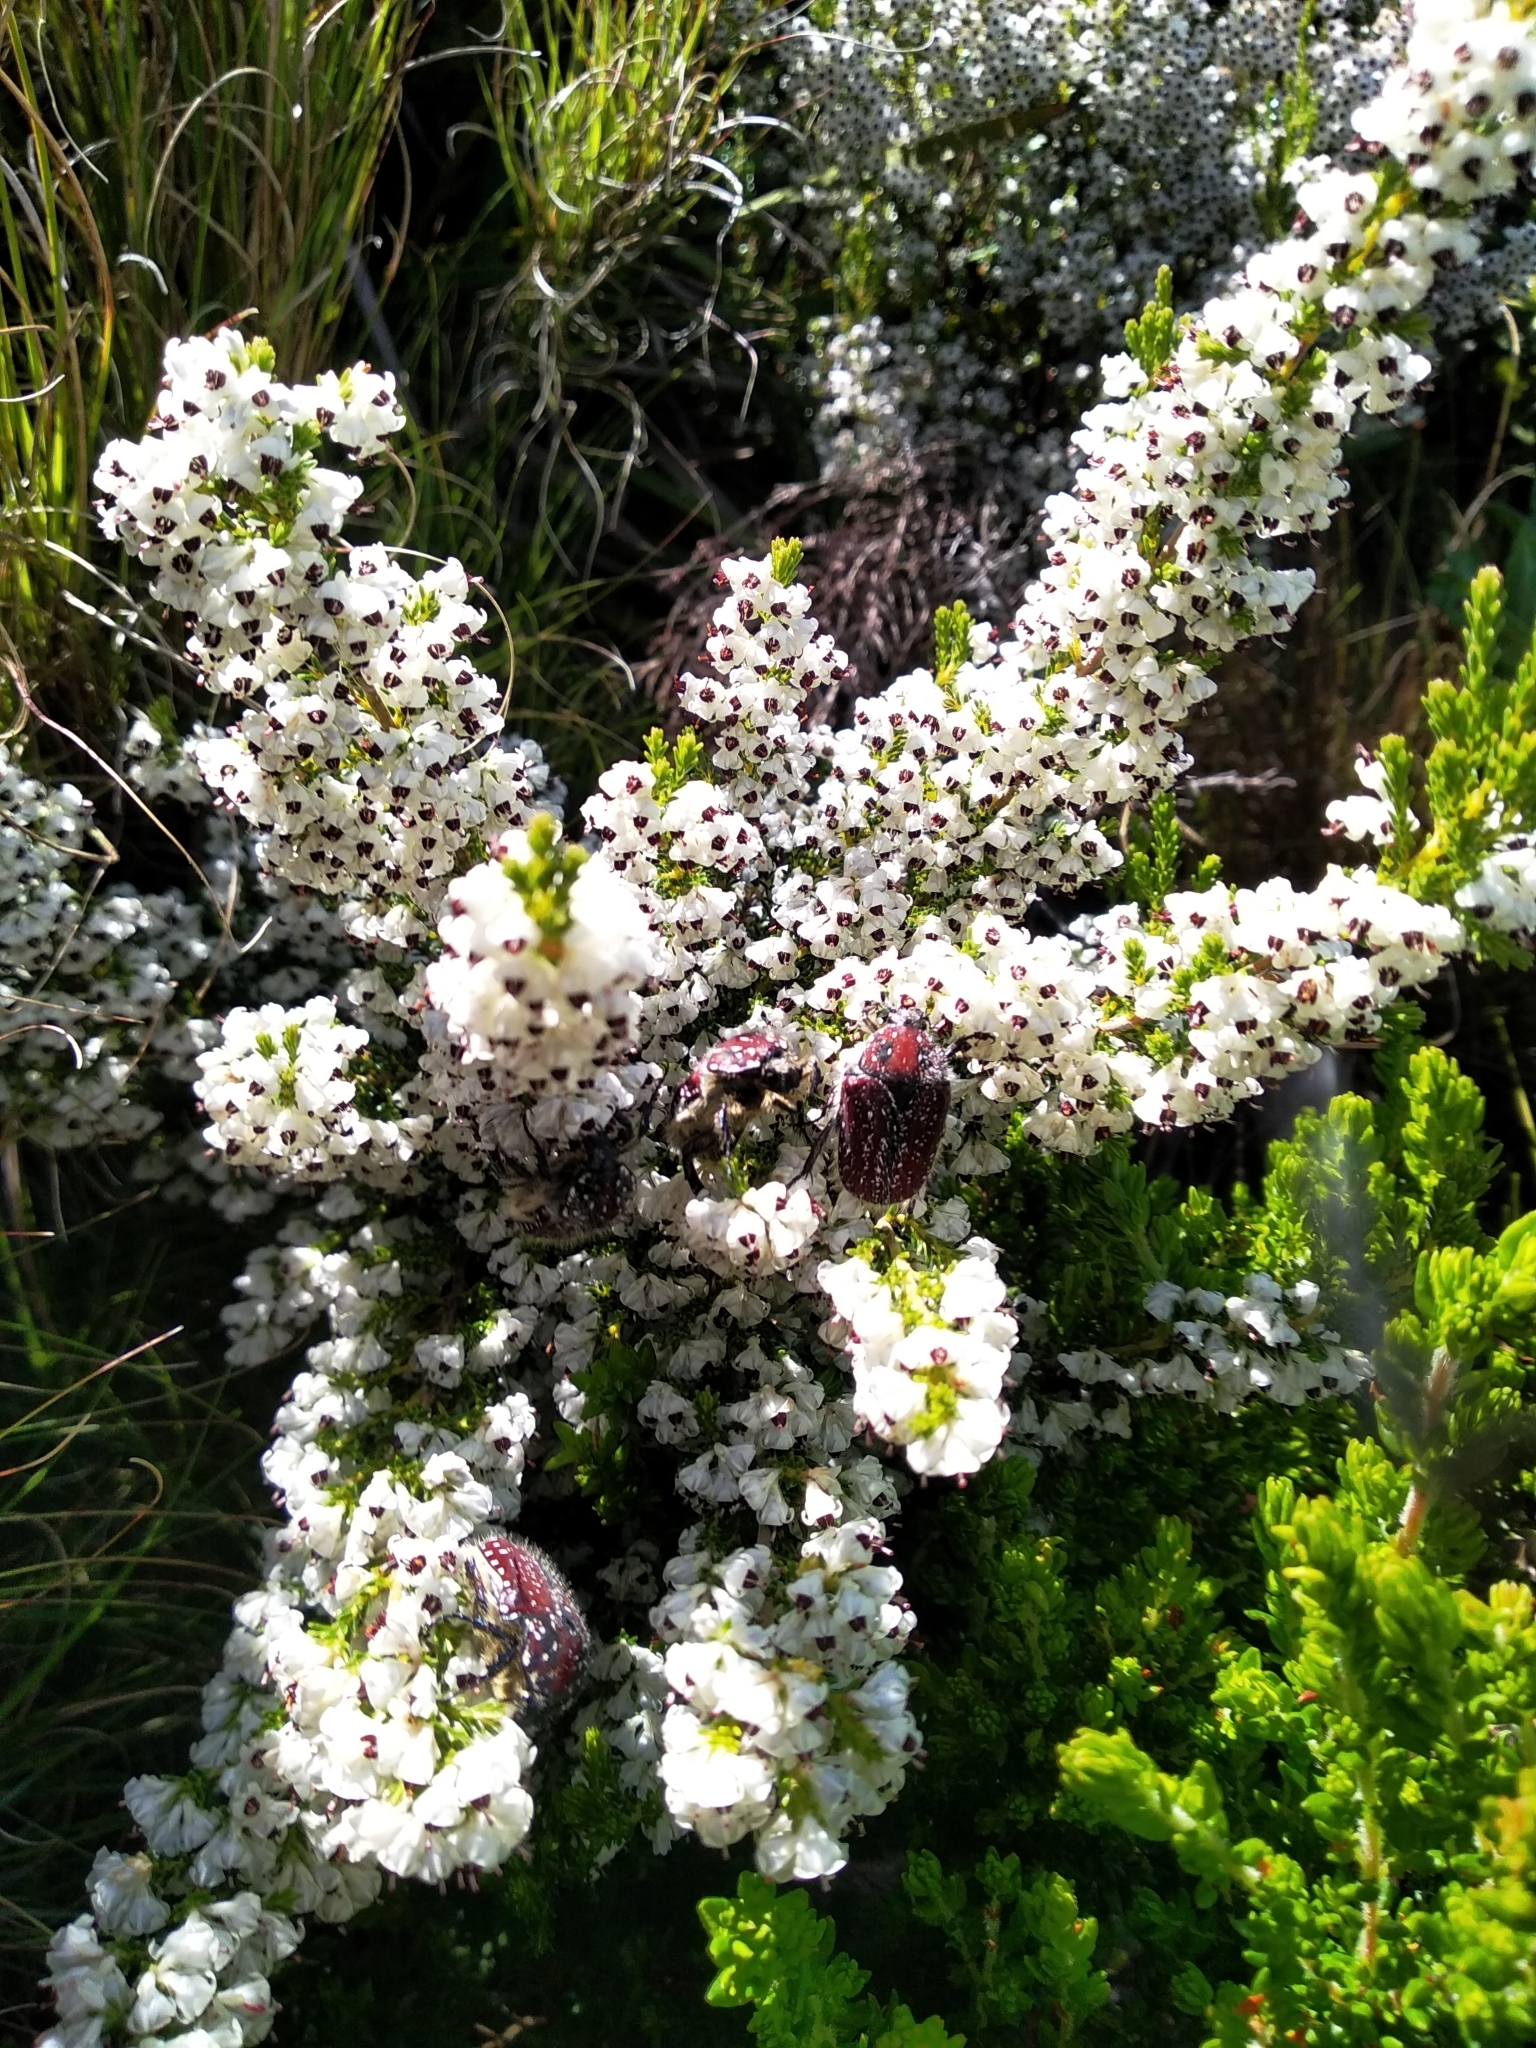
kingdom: Animalia
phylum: Arthropoda
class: Insecta
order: Coleoptera
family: Scarabaeidae
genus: Trichostetha
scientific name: Trichostetha capensis
